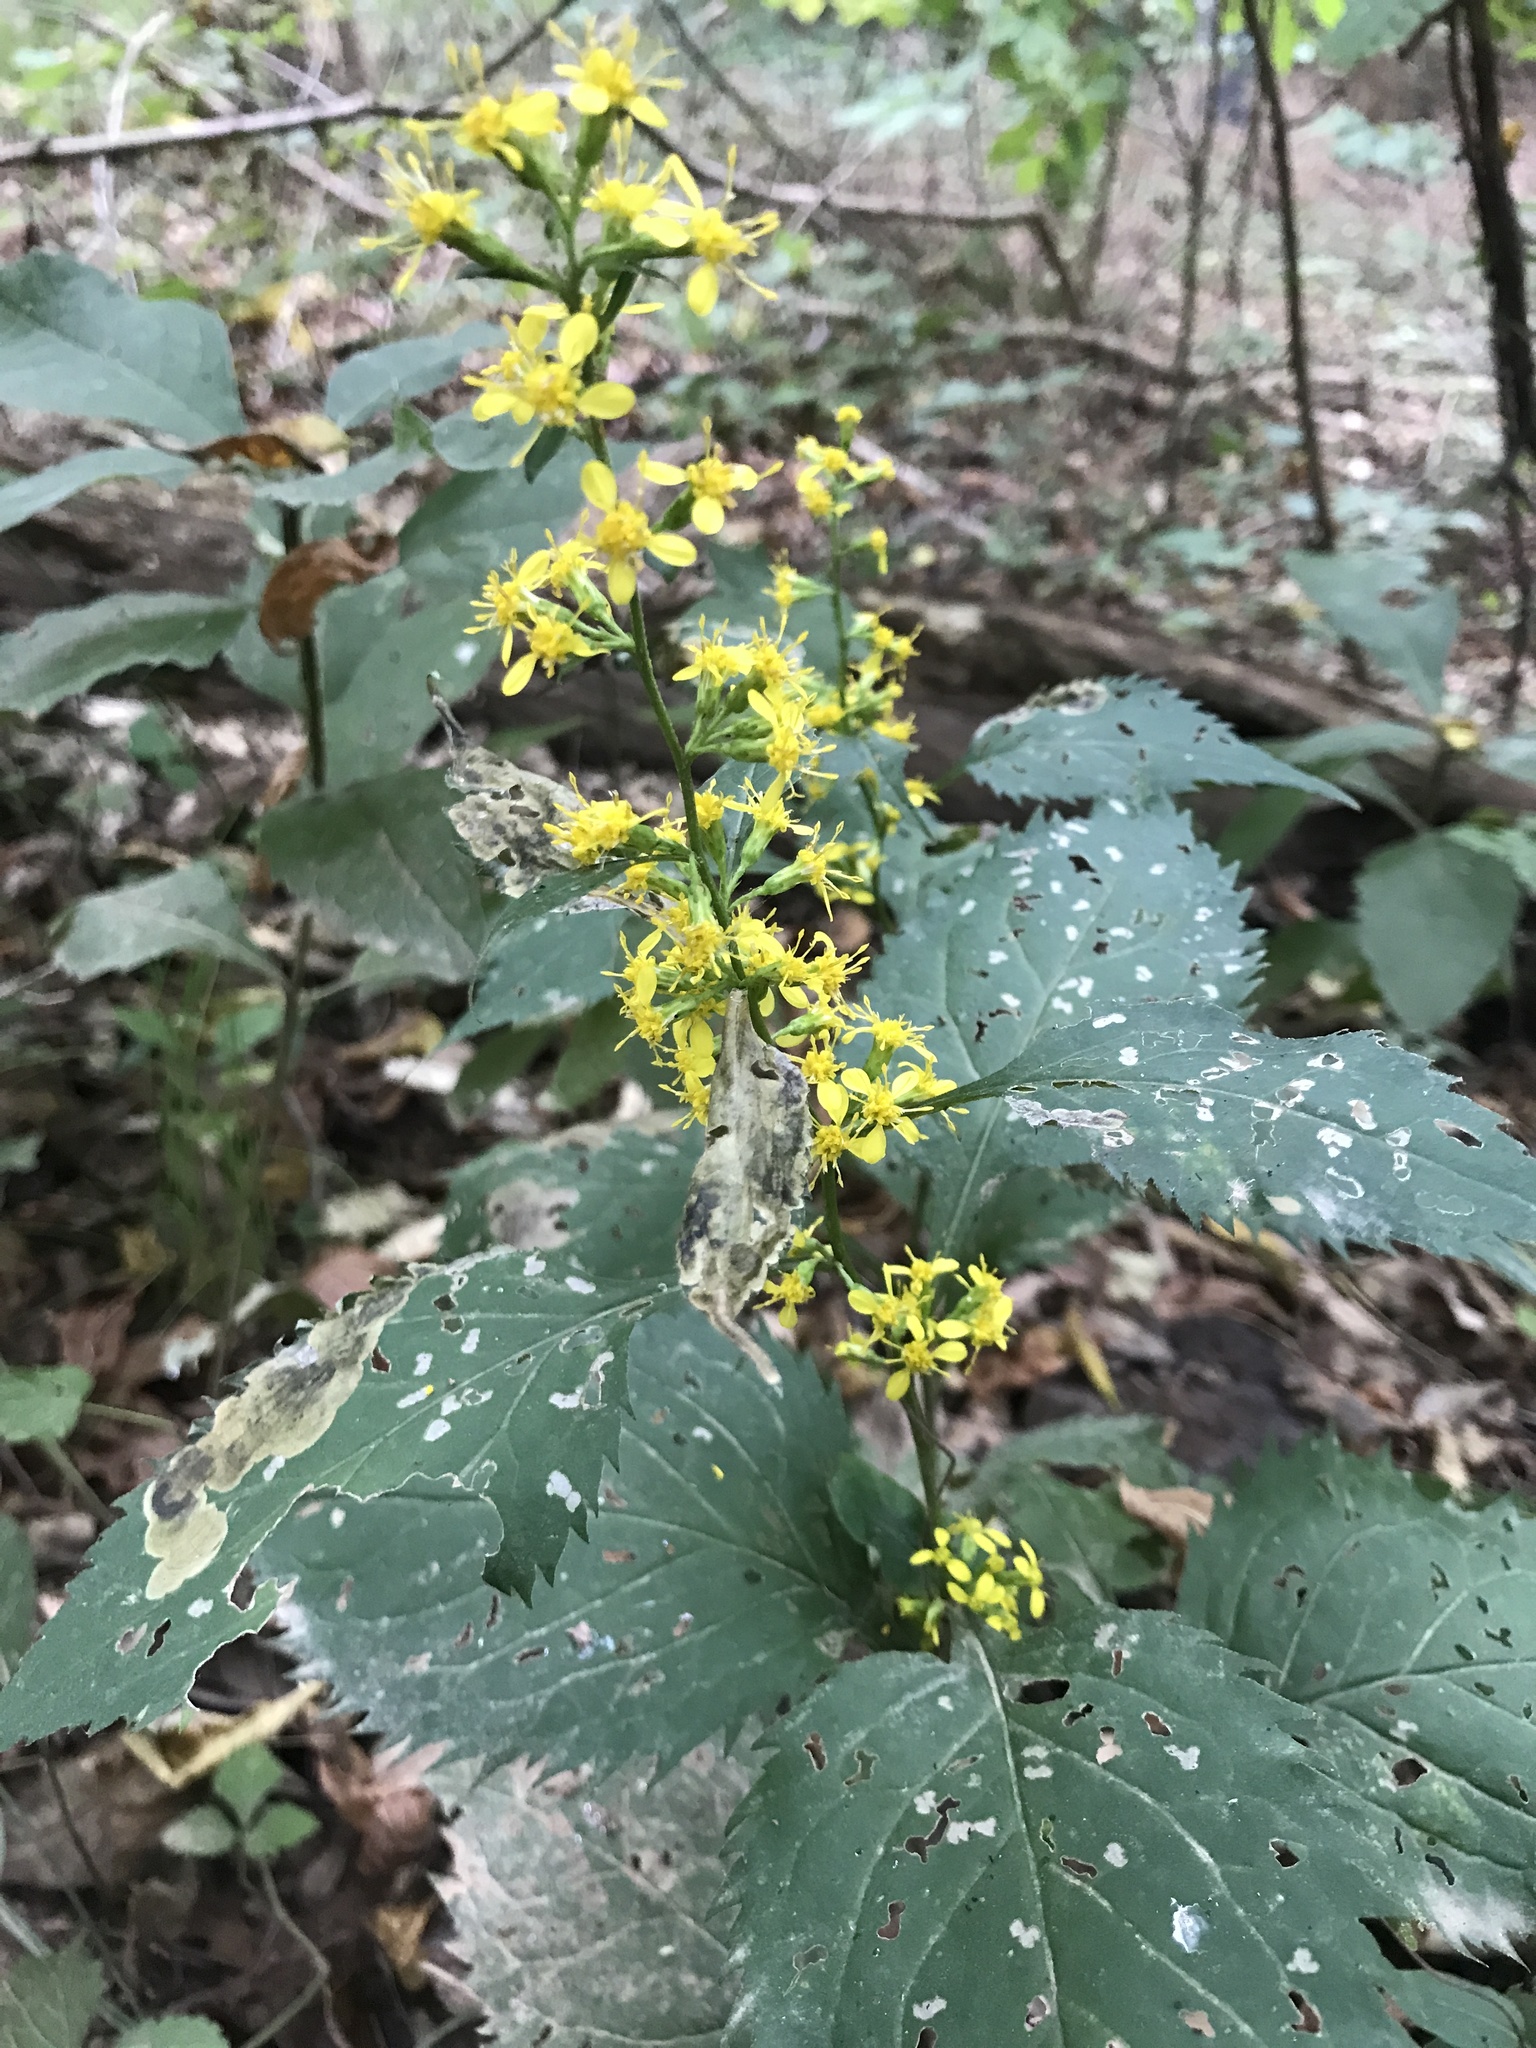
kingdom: Plantae
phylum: Tracheophyta
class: Magnoliopsida
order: Asterales
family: Asteraceae
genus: Solidago
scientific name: Solidago flexicaulis
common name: Zig-zag goldenrod
